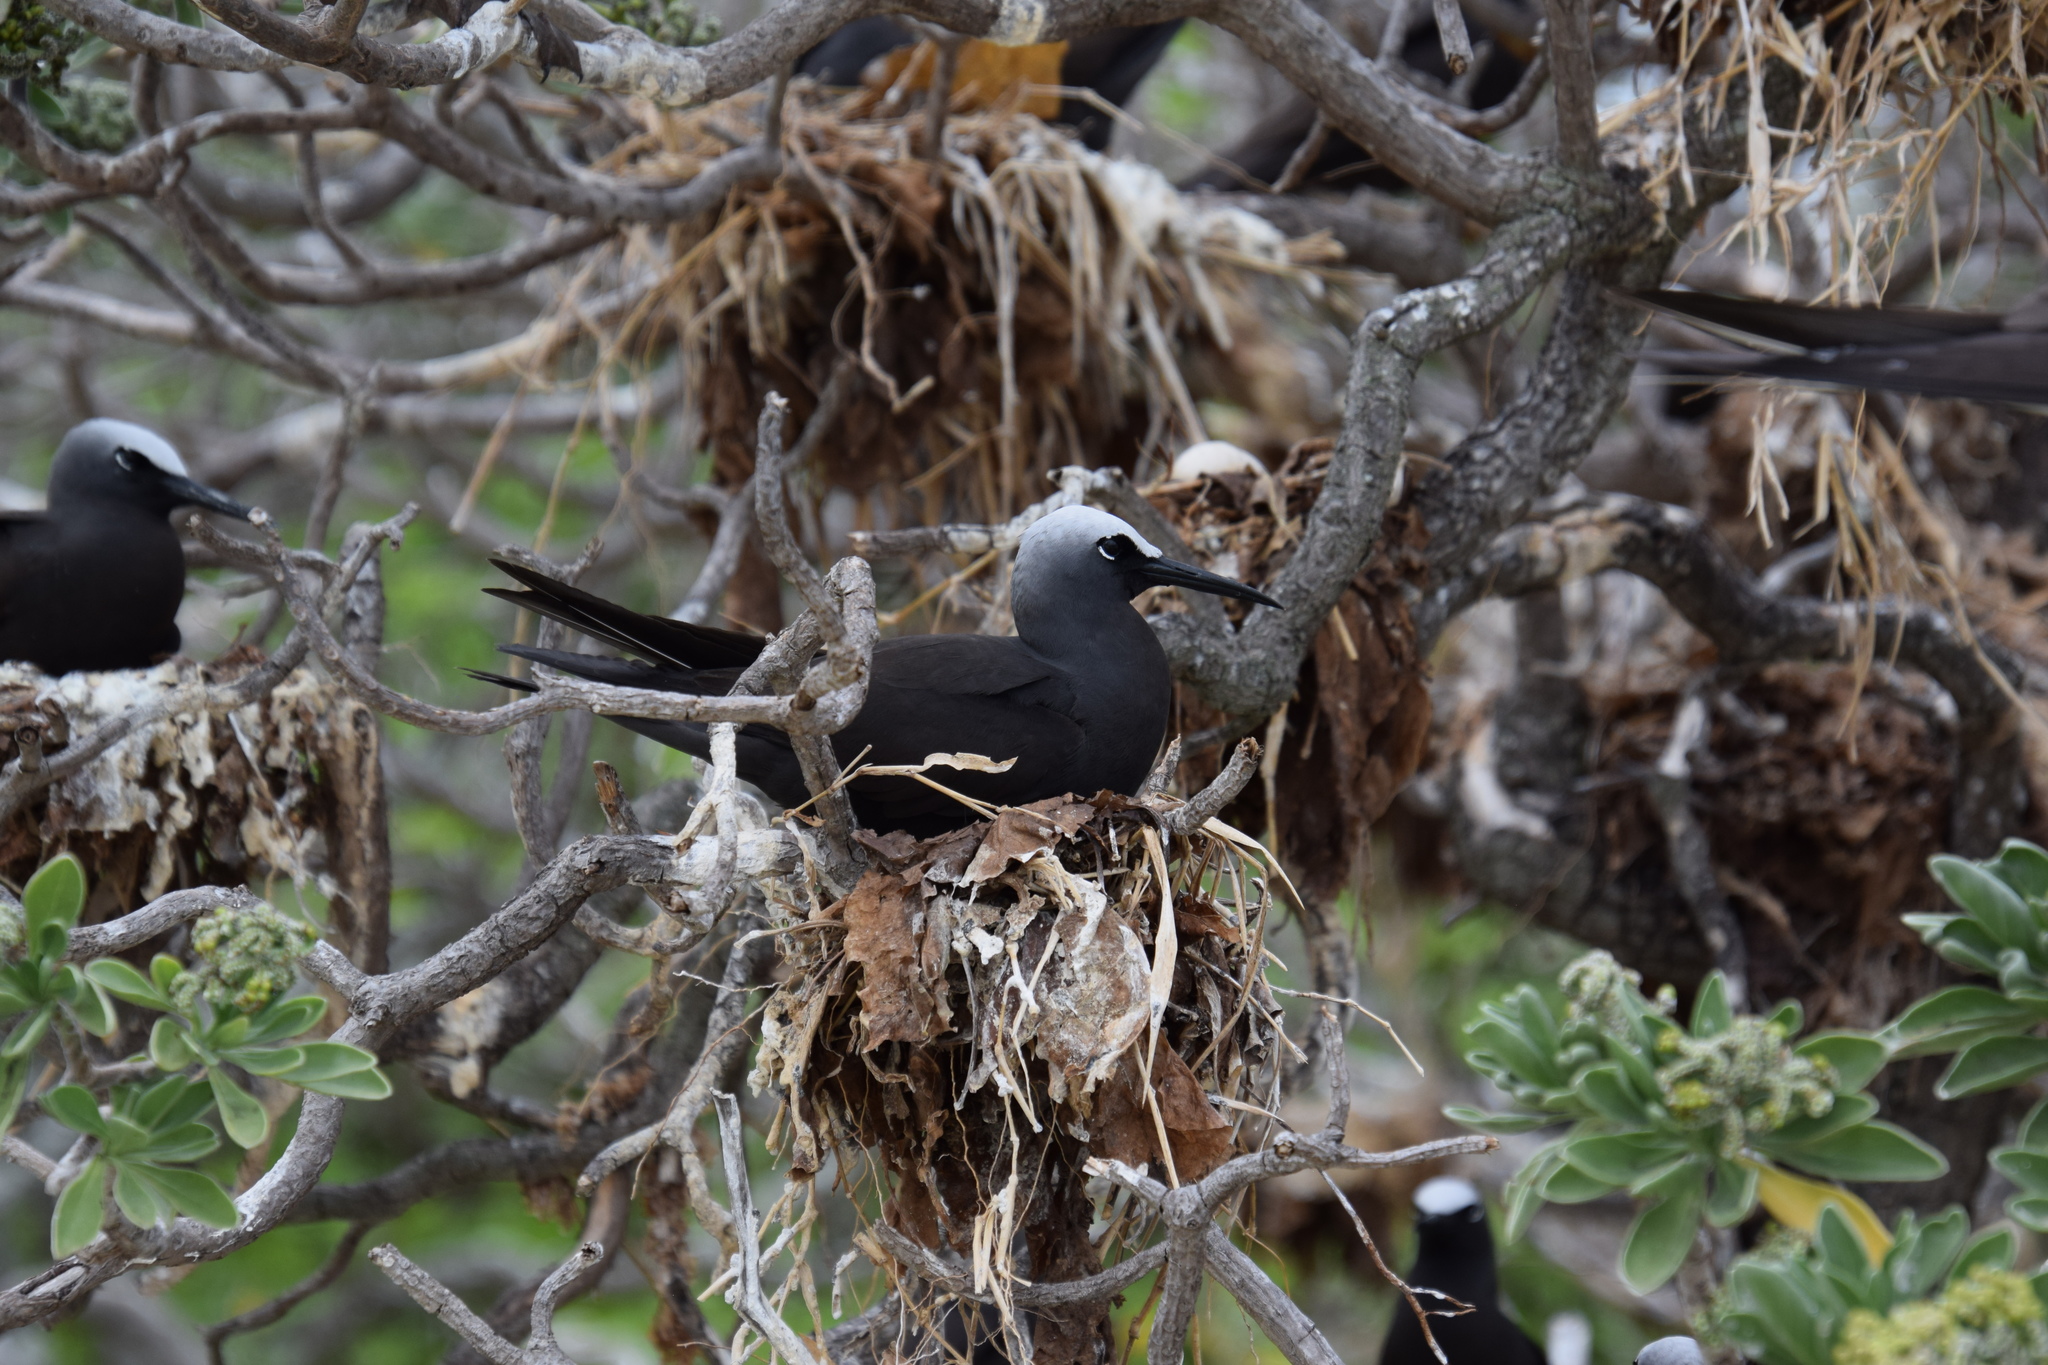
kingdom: Animalia
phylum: Chordata
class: Aves
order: Charadriiformes
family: Laridae
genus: Anous
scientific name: Anous minutus
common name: Black noddy
